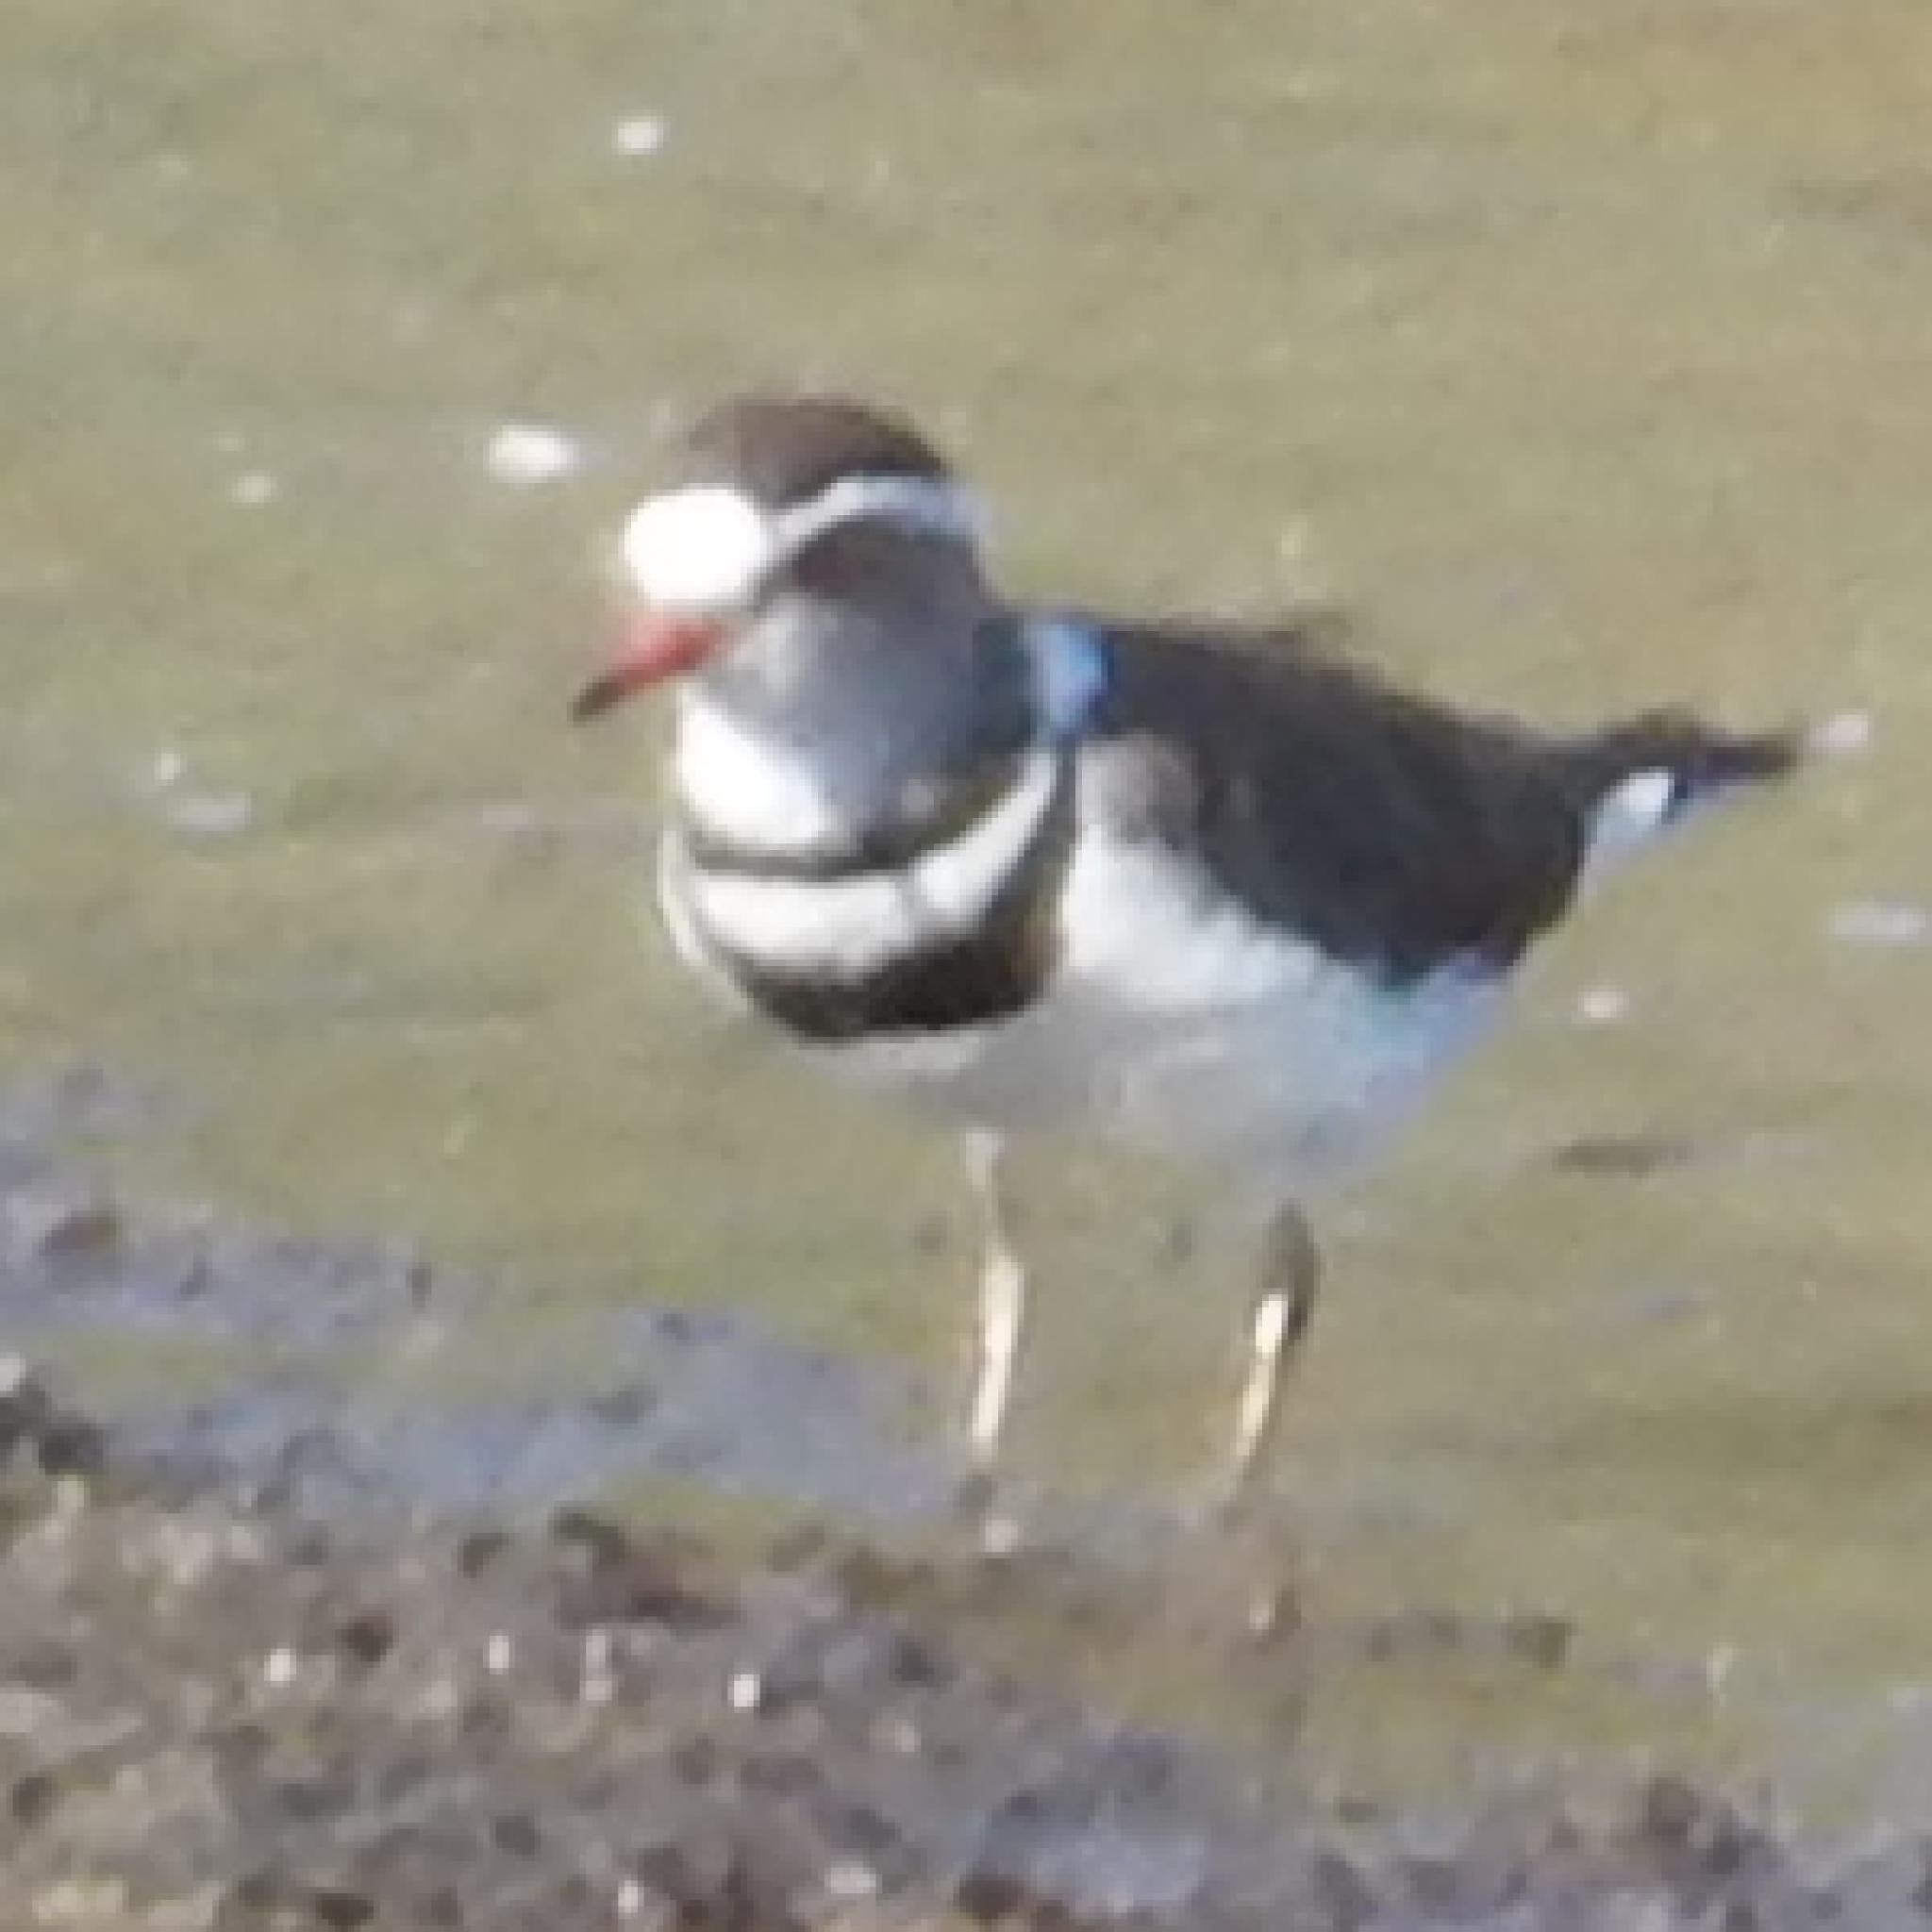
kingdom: Animalia
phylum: Chordata
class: Aves
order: Charadriiformes
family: Charadriidae
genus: Charadrius
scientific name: Charadrius tricollaris
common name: Three-banded plover
